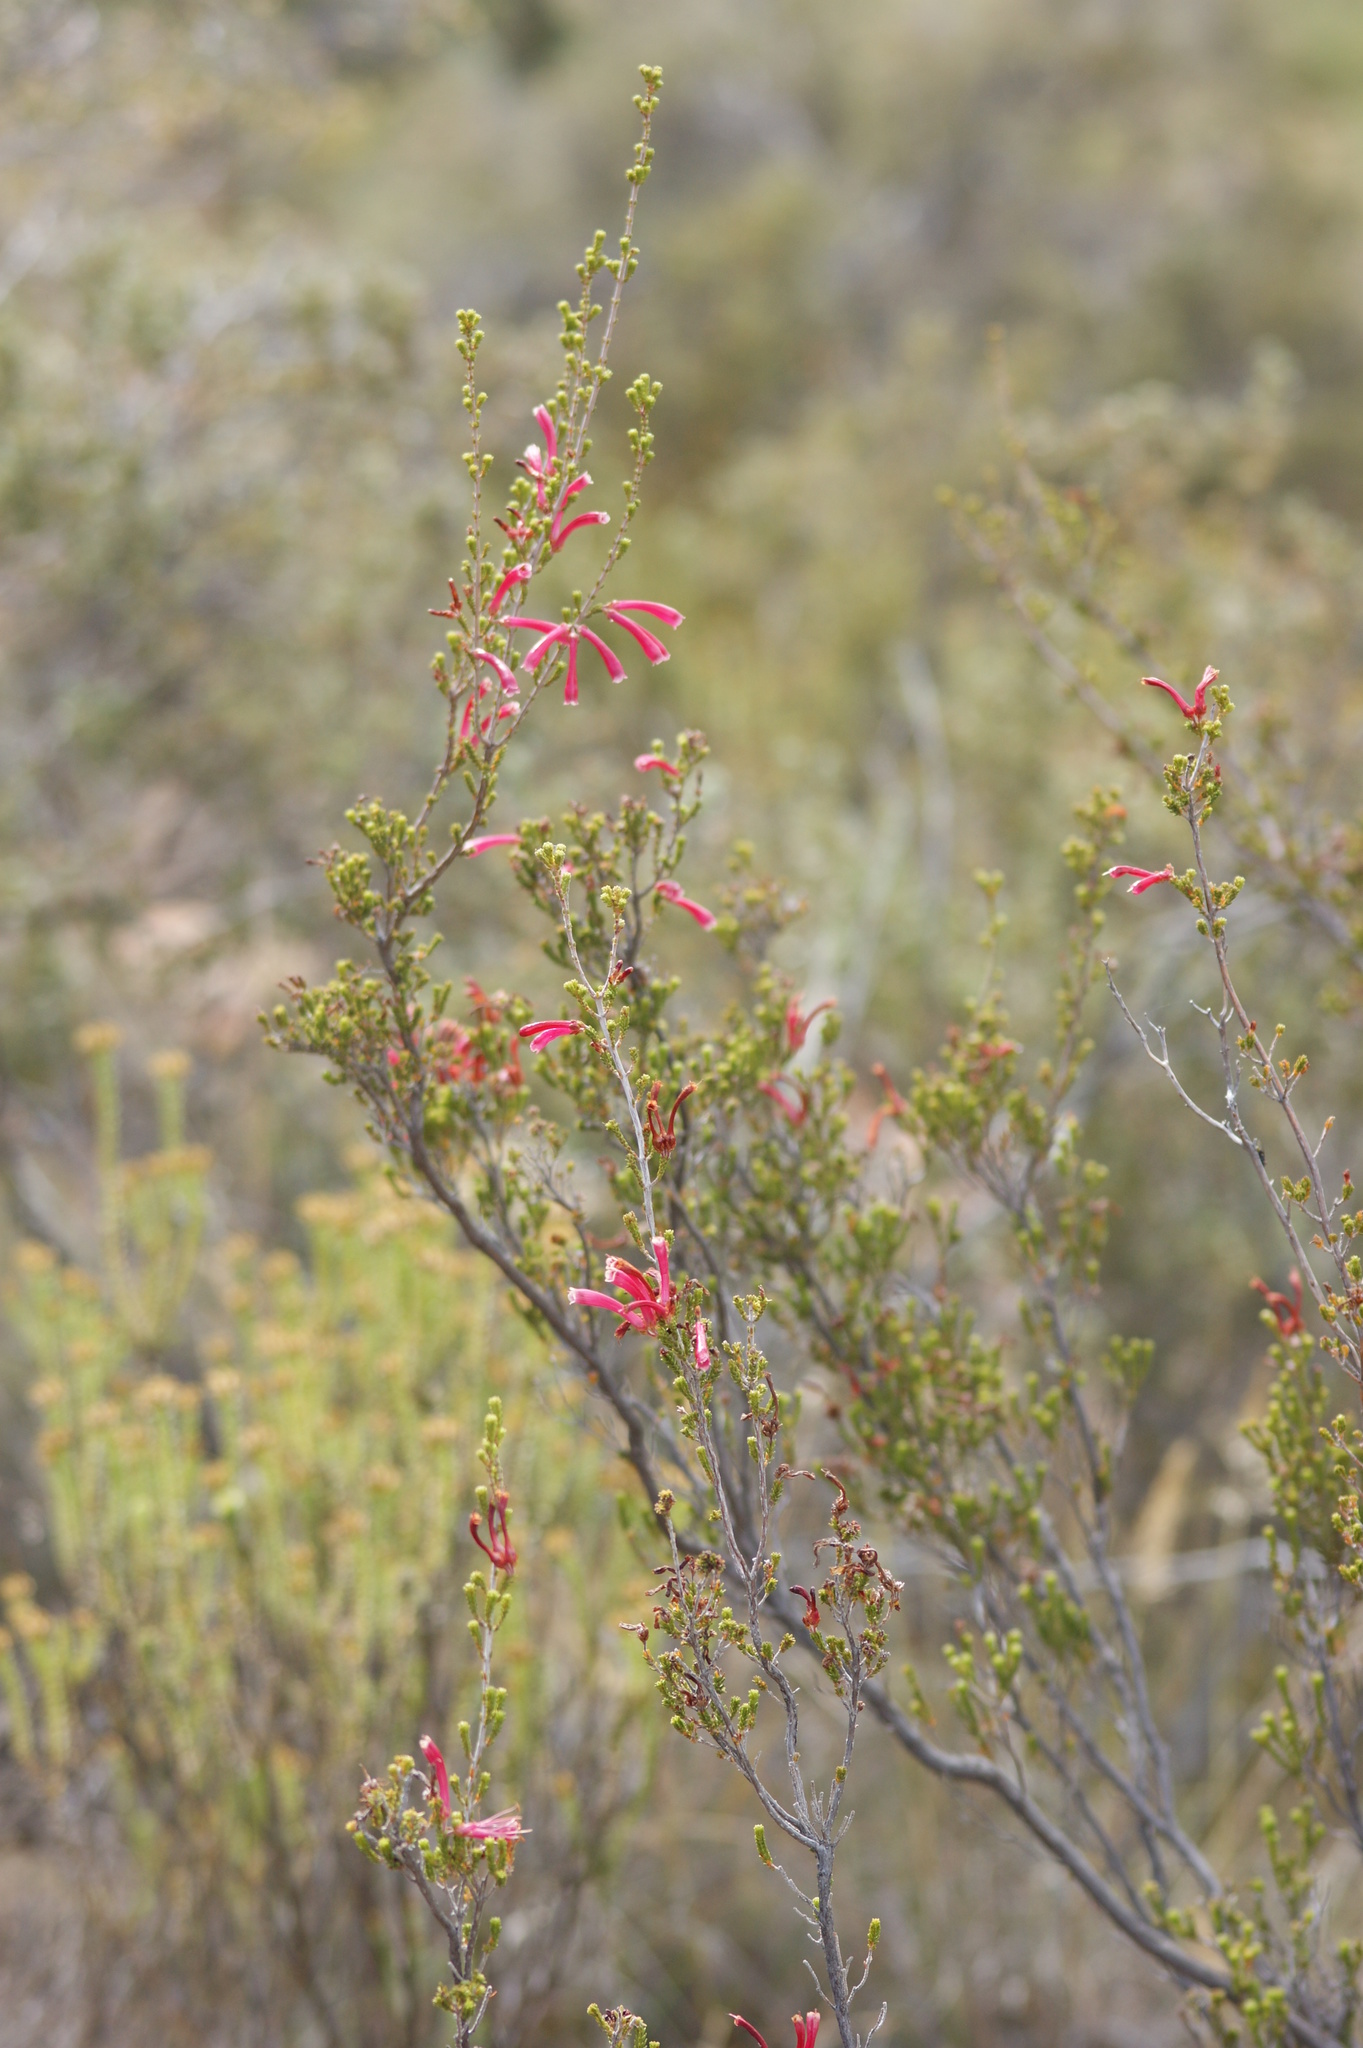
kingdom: Plantae
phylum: Tracheophyta
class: Magnoliopsida
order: Ericales
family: Ericaceae
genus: Erica
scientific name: Erica discolor
